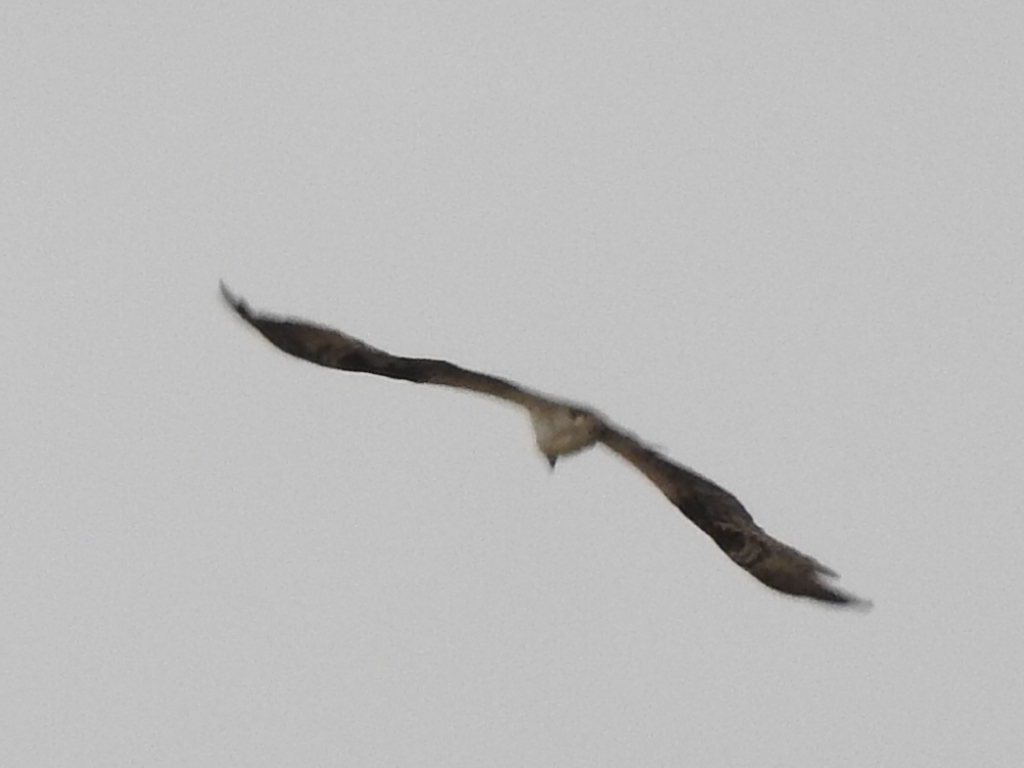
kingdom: Animalia
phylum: Chordata
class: Aves
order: Accipitriformes
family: Pandionidae
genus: Pandion
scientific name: Pandion haliaetus
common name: Osprey
